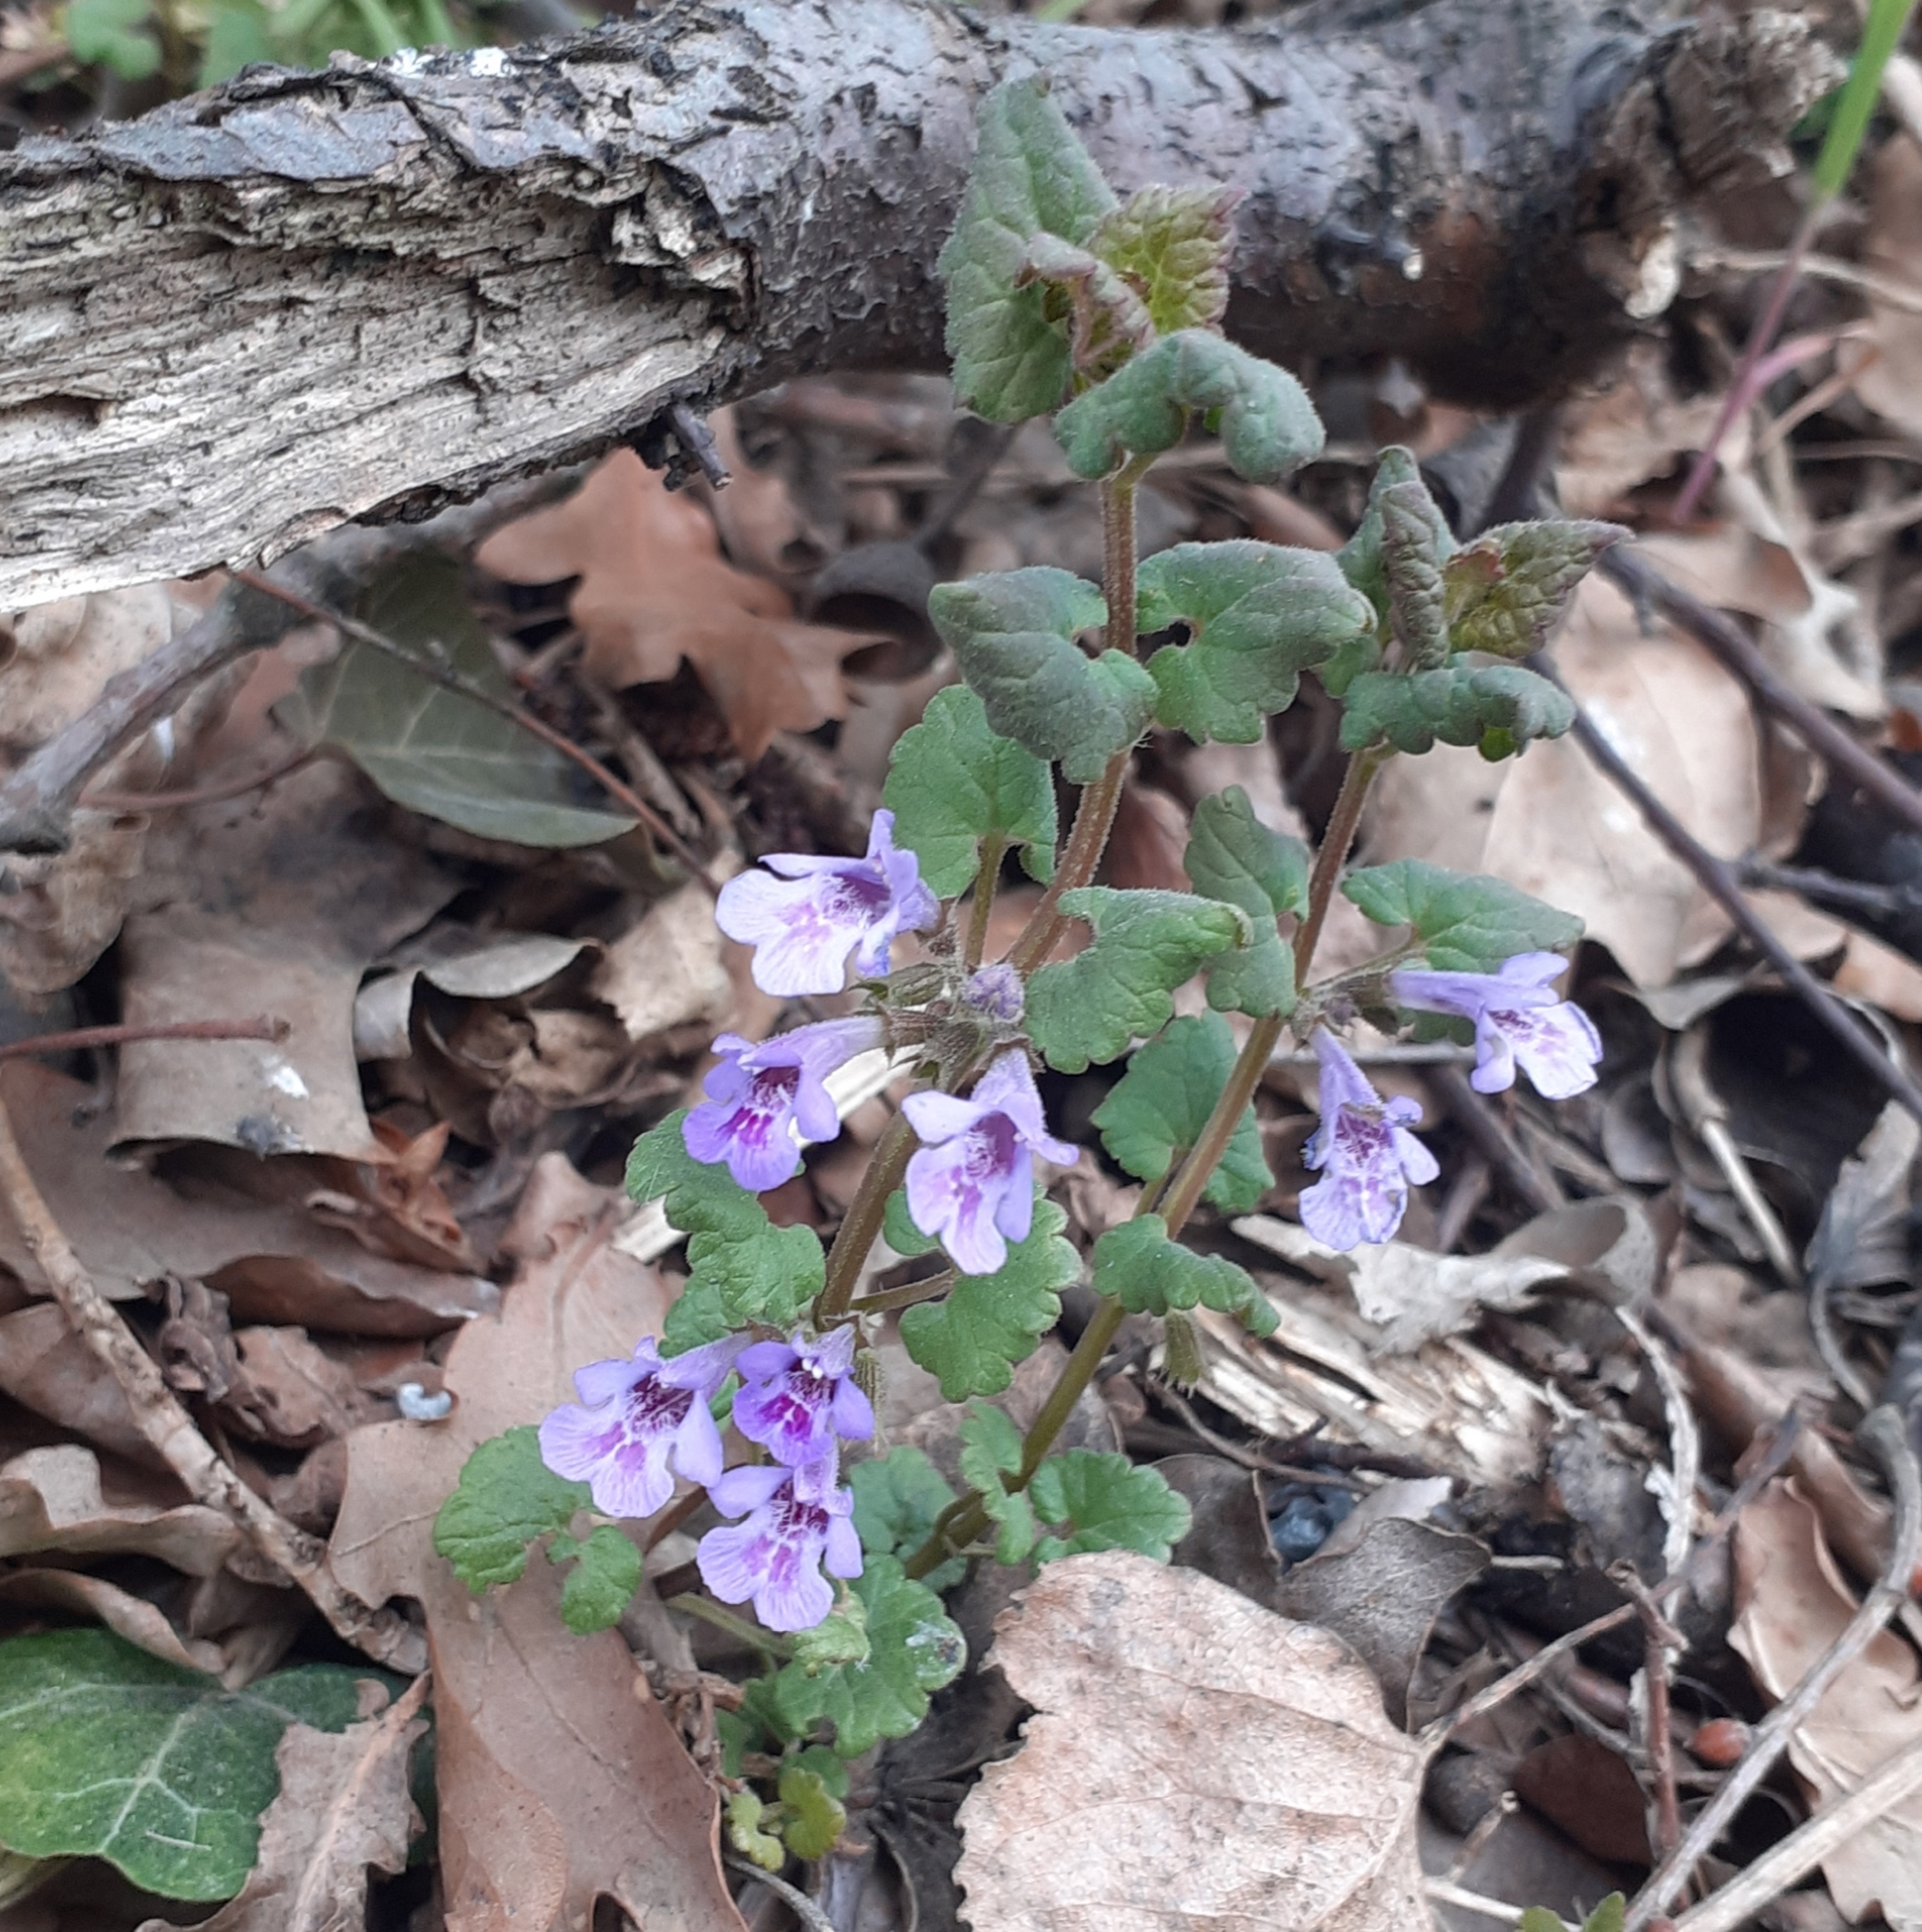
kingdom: Plantae
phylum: Tracheophyta
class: Magnoliopsida
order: Lamiales
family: Lamiaceae
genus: Glechoma
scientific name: Glechoma hederacea
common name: Ground ivy
